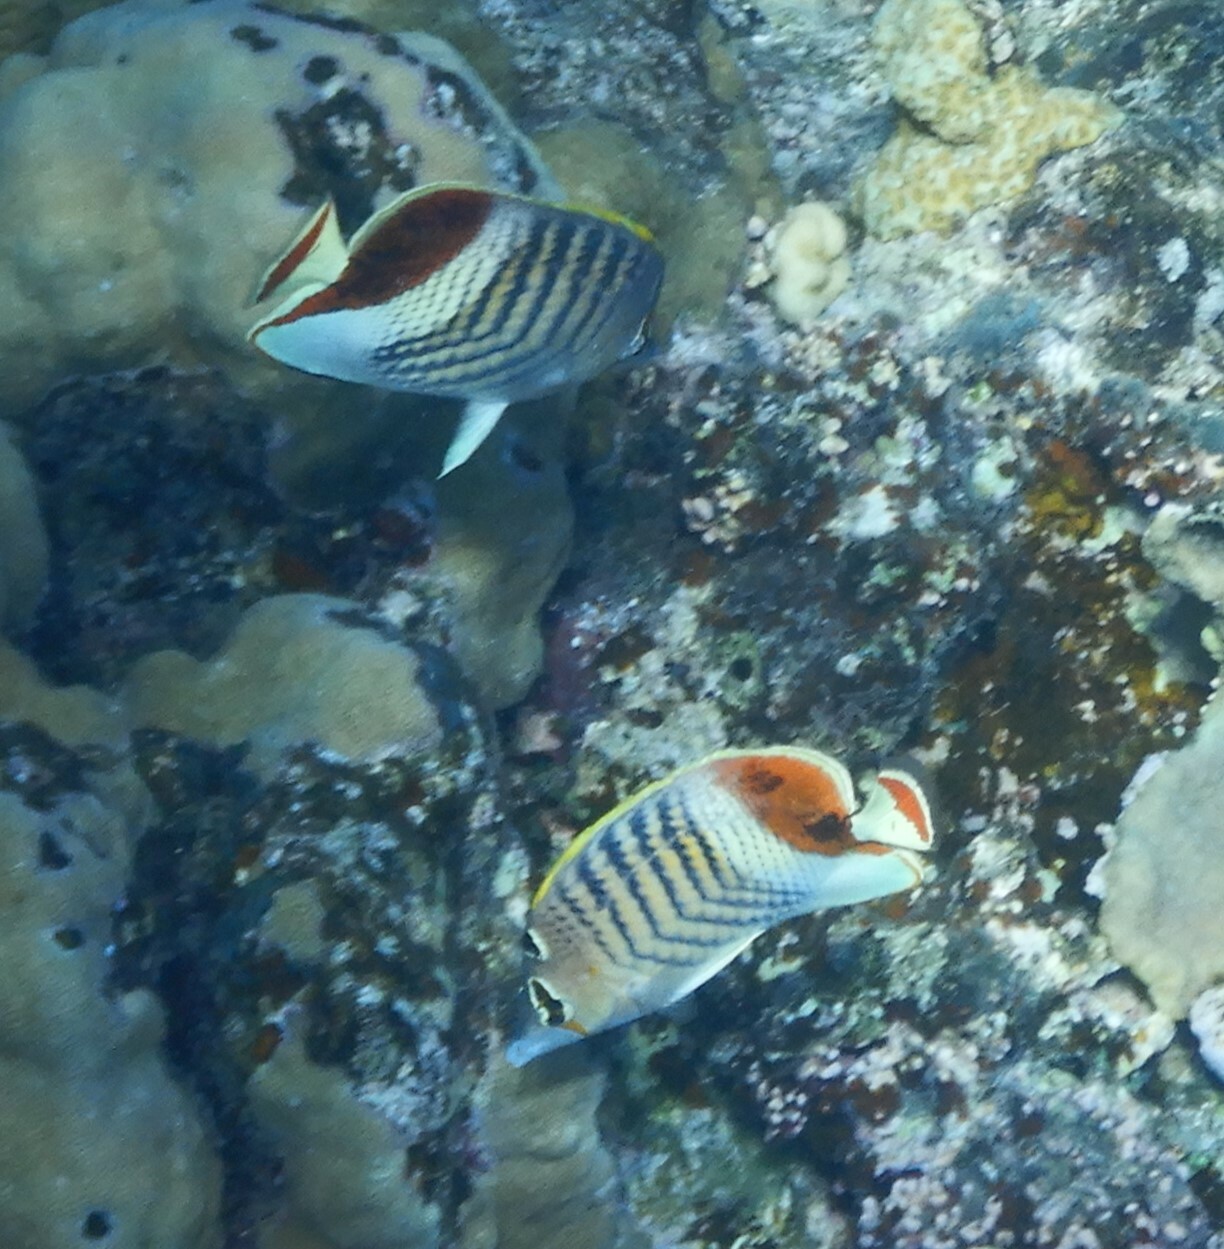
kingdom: Animalia
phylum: Chordata
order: Perciformes
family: Chaetodontidae
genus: Chaetodon
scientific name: Chaetodon paucifasciatus
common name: Crown butterflyfish
